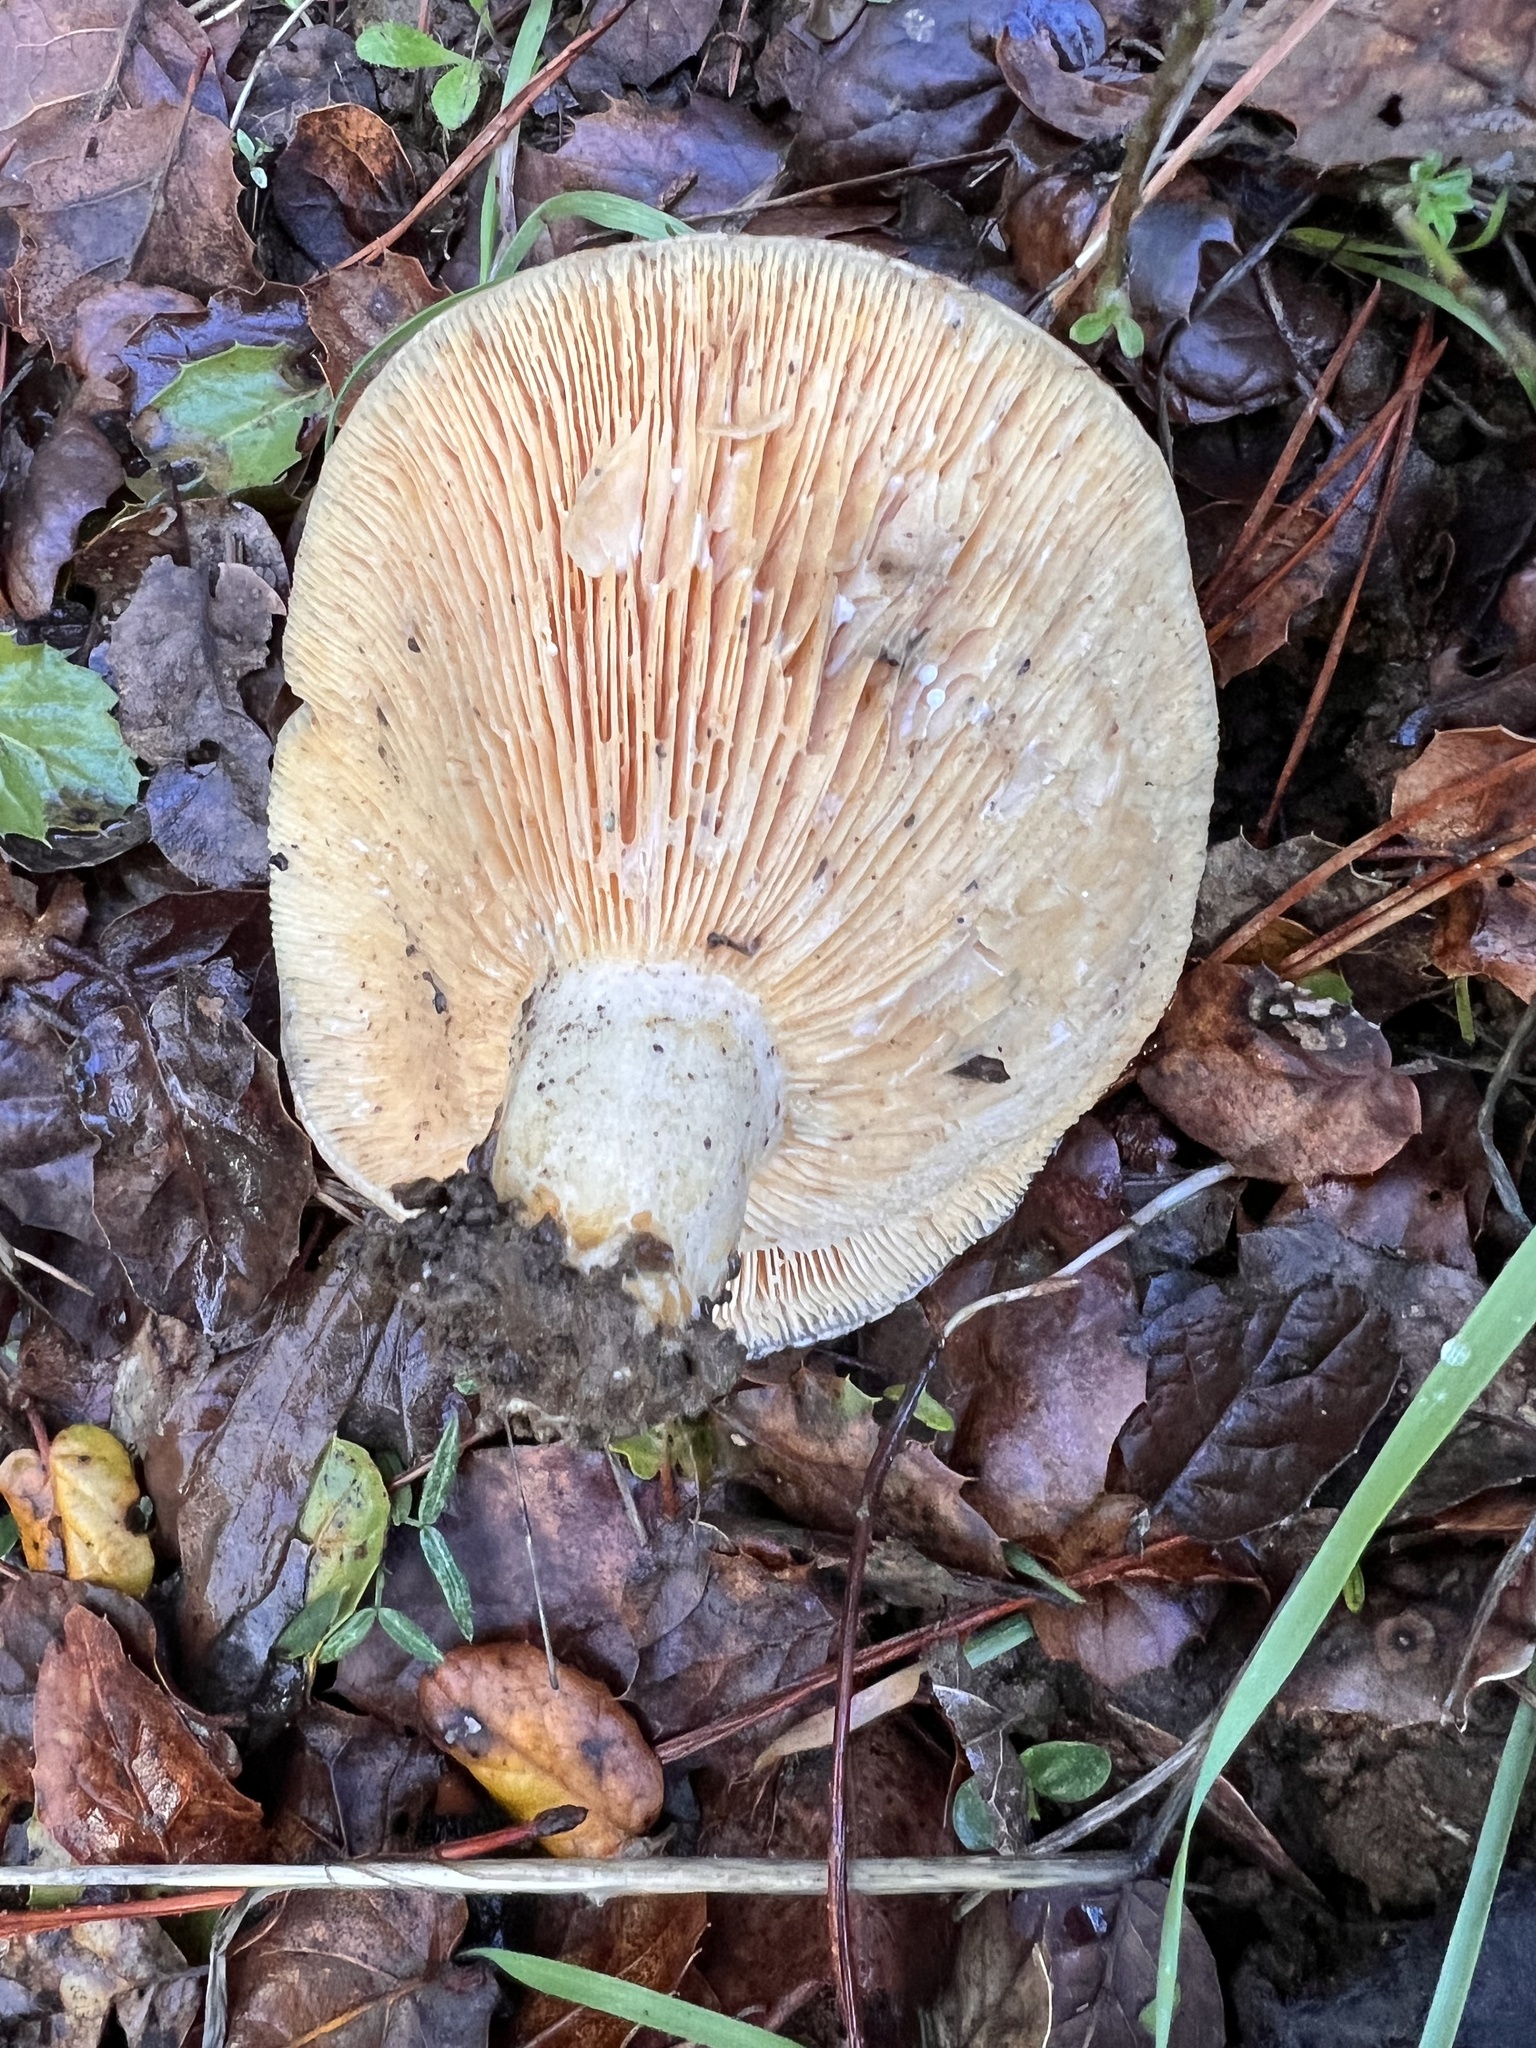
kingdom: Fungi
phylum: Basidiomycota
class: Agaricomycetes
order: Russulales
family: Russulaceae
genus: Lactarius
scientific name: Lactarius alnicola
